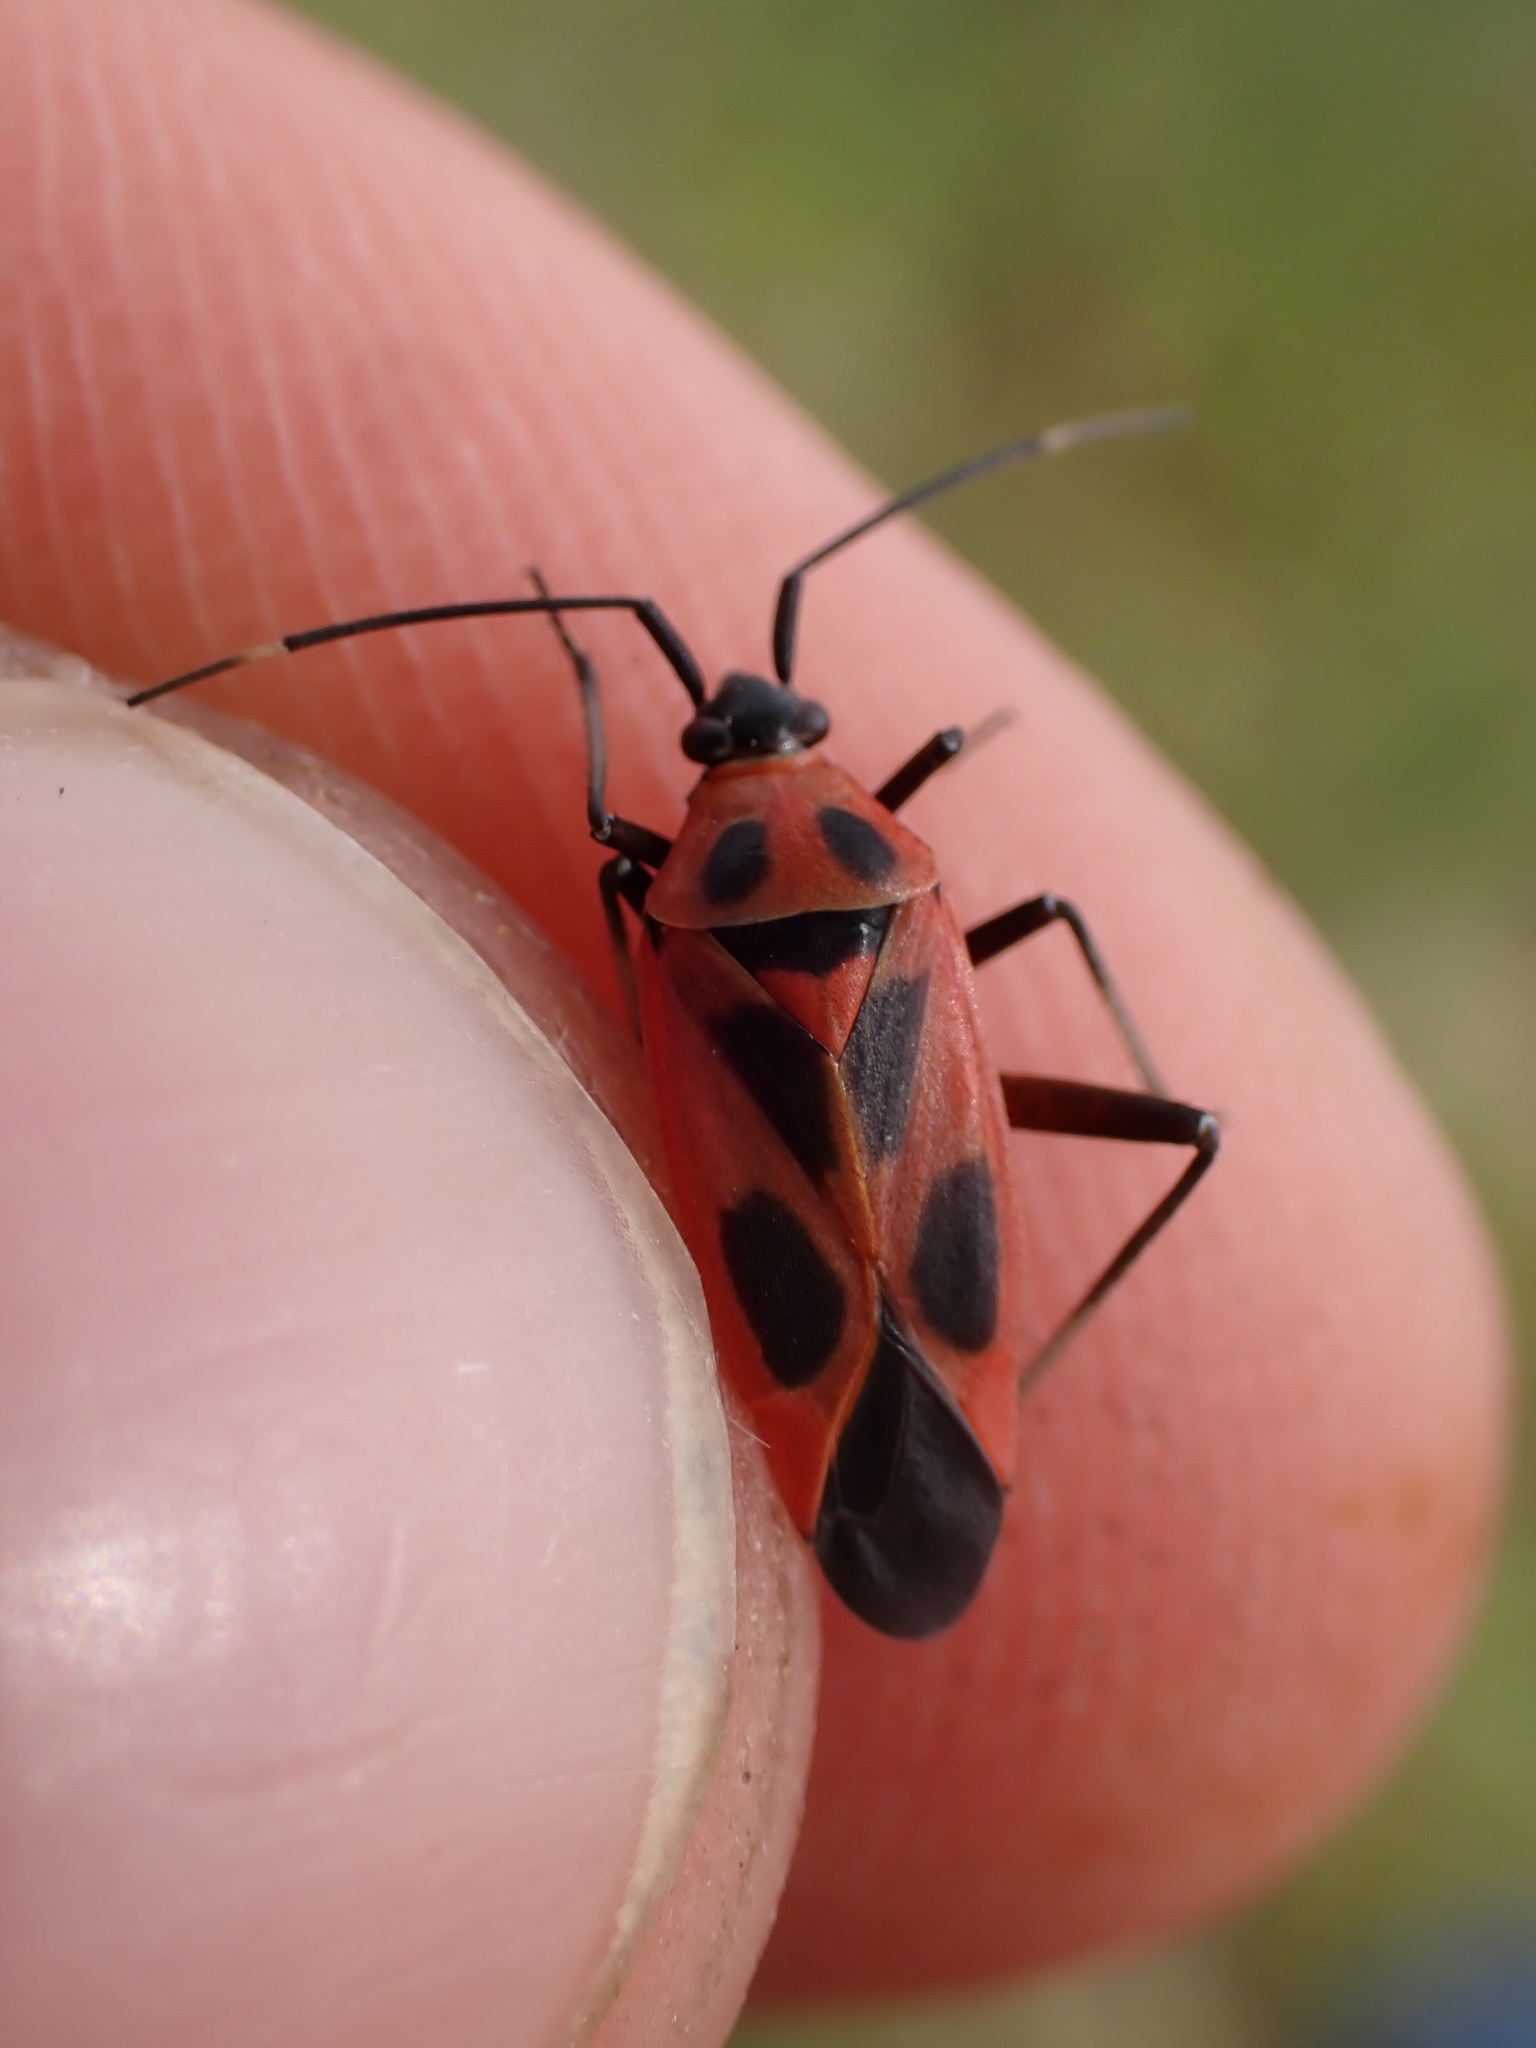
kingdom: Animalia
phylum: Arthropoda
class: Insecta
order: Hemiptera
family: Miridae
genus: Calocoris
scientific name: Calocoris nemoralis
